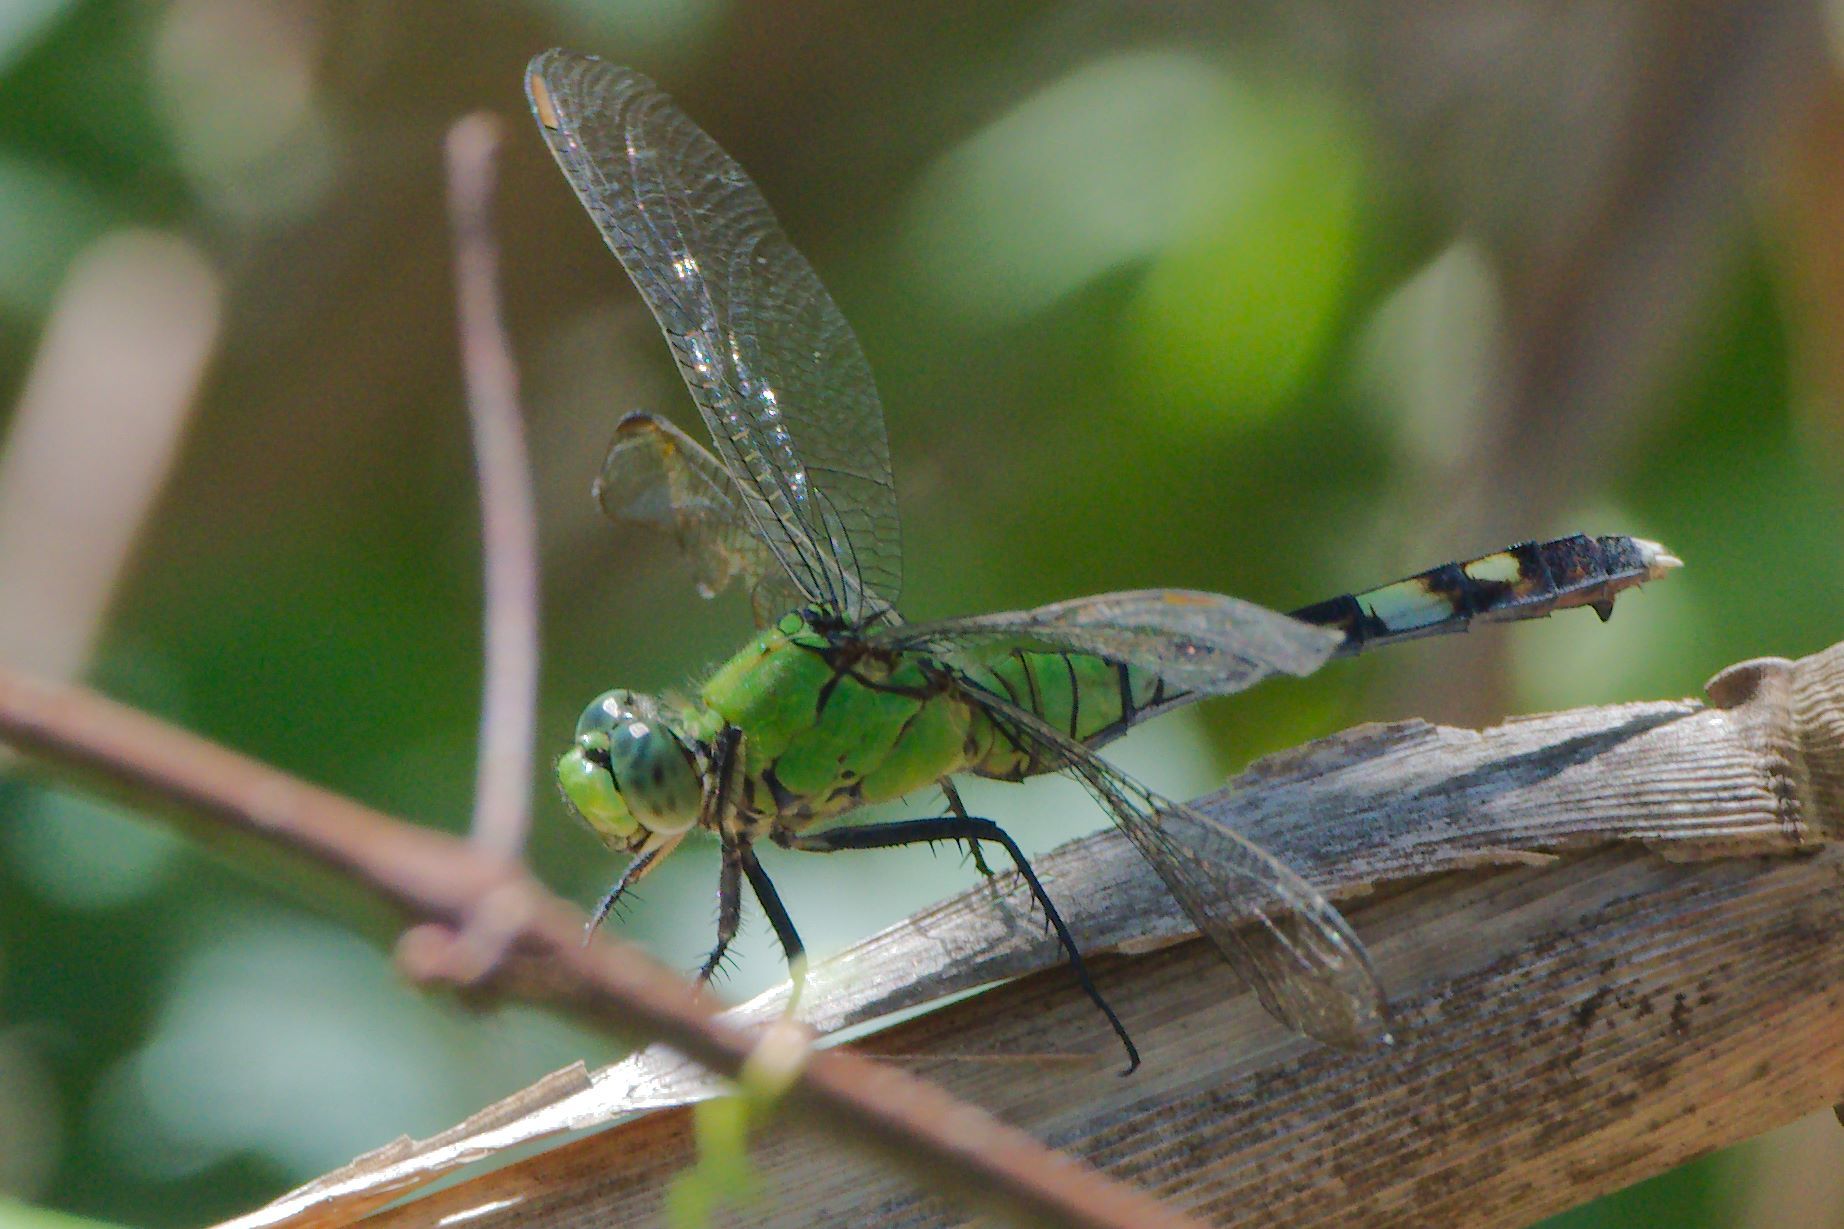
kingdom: Animalia
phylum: Arthropoda
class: Insecta
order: Odonata
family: Libellulidae
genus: Erythemis
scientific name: Erythemis simplicicollis
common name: Eastern pondhawk
